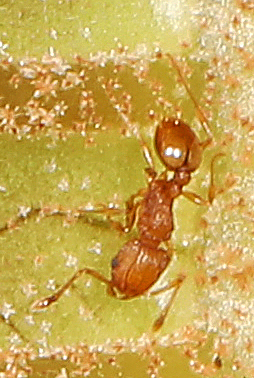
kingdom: Animalia
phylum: Arthropoda
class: Insecta
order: Hymenoptera
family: Formicidae
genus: Wasmannia
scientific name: Wasmannia auropunctata
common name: Little fire ant
